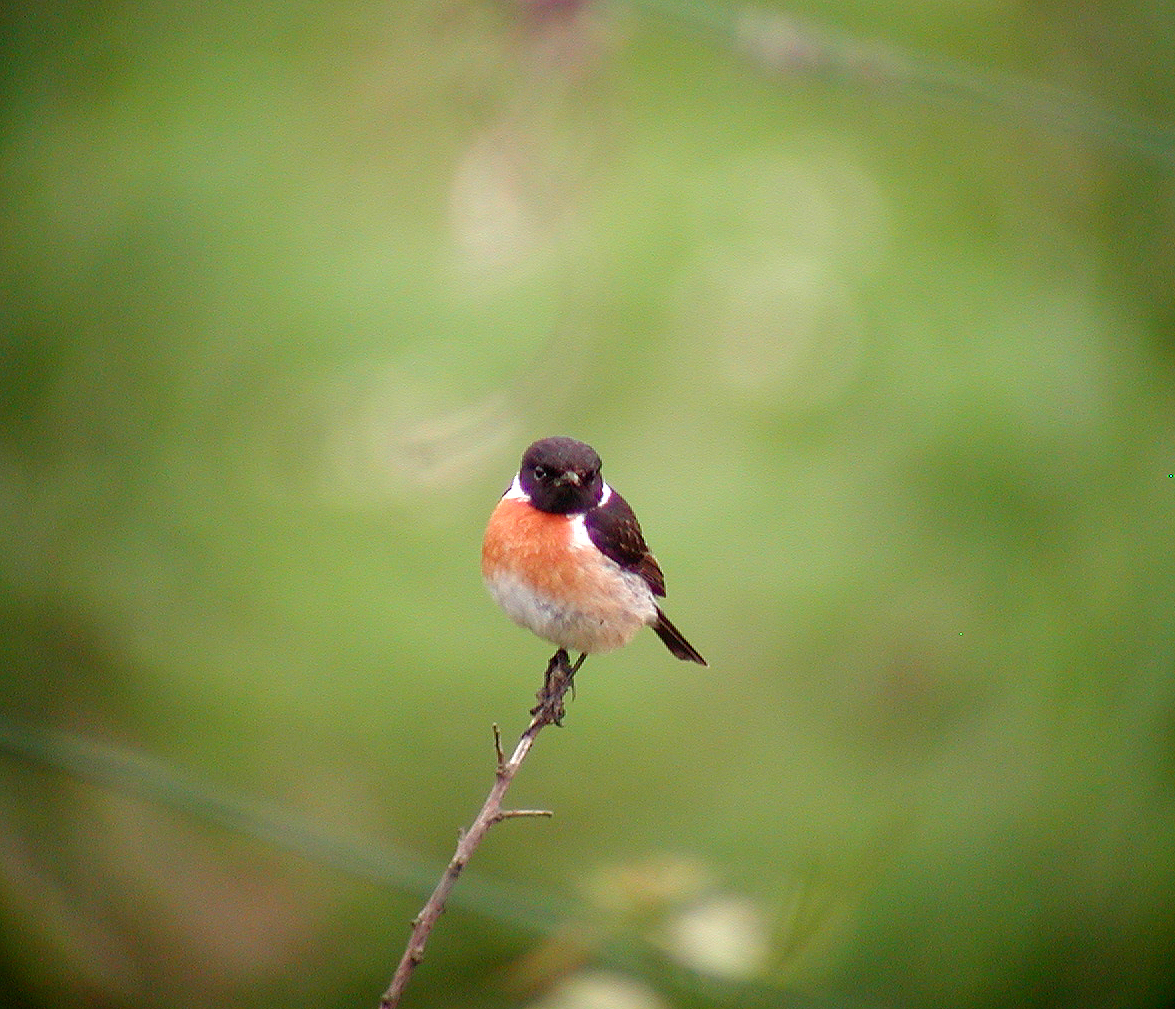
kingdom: Animalia
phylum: Chordata
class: Aves
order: Passeriformes
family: Muscicapidae
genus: Saxicola
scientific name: Saxicola rubicola
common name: European stonechat
